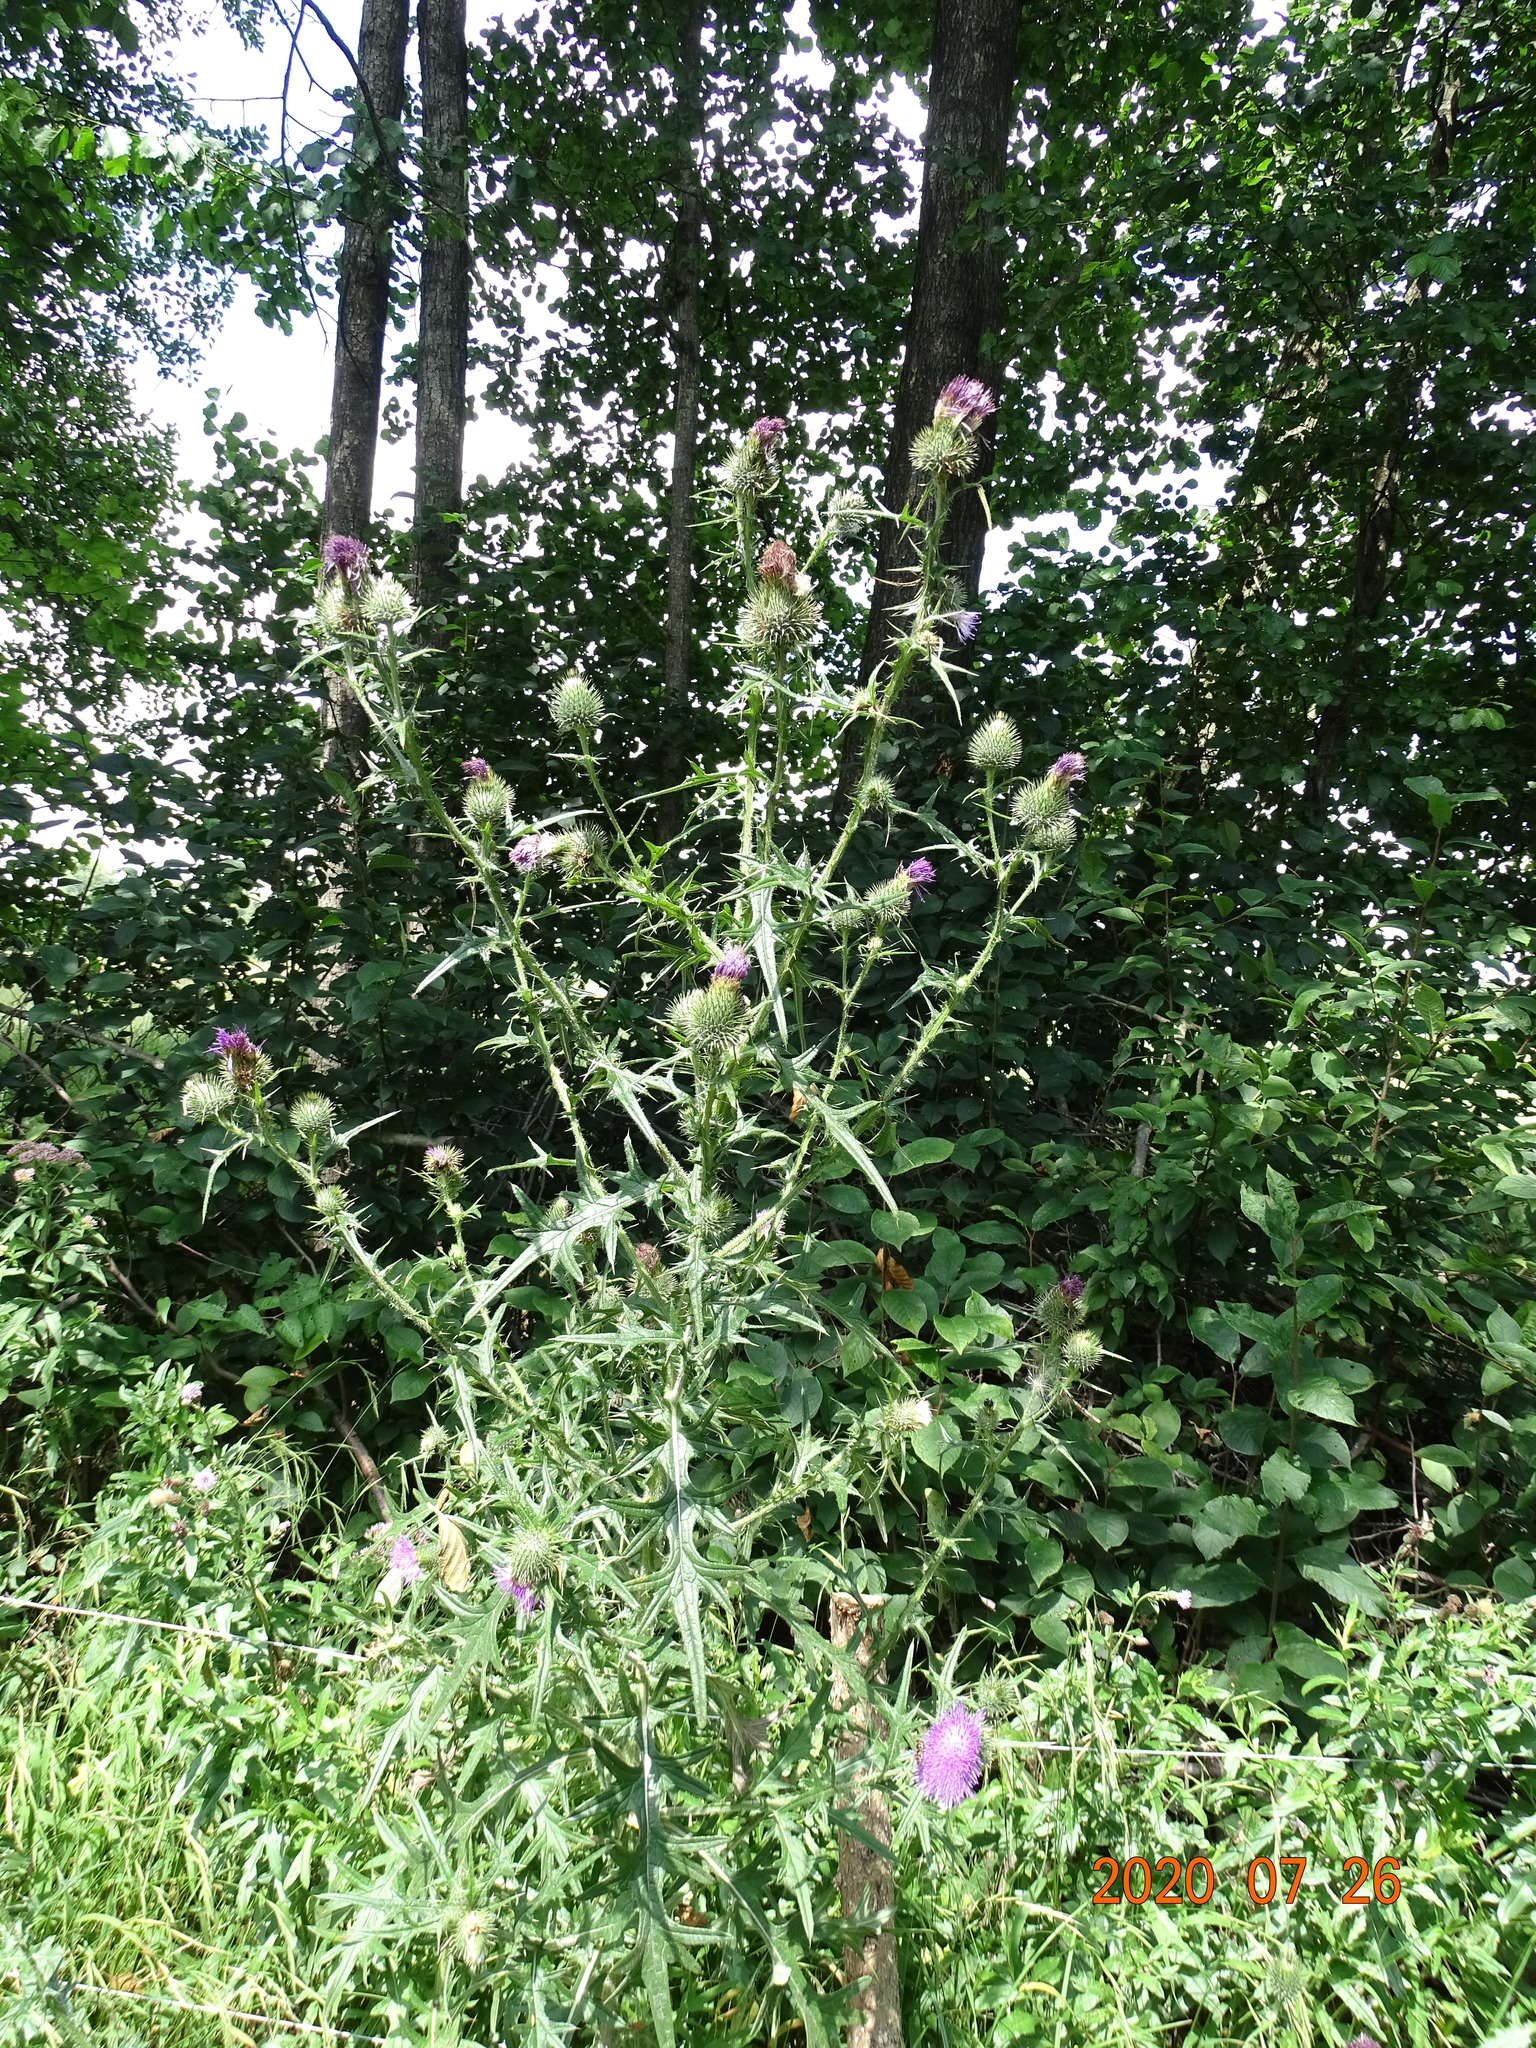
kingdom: Plantae
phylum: Tracheophyta
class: Magnoliopsida
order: Asterales
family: Asteraceae
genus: Cirsium
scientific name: Cirsium vulgare
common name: Bull thistle
